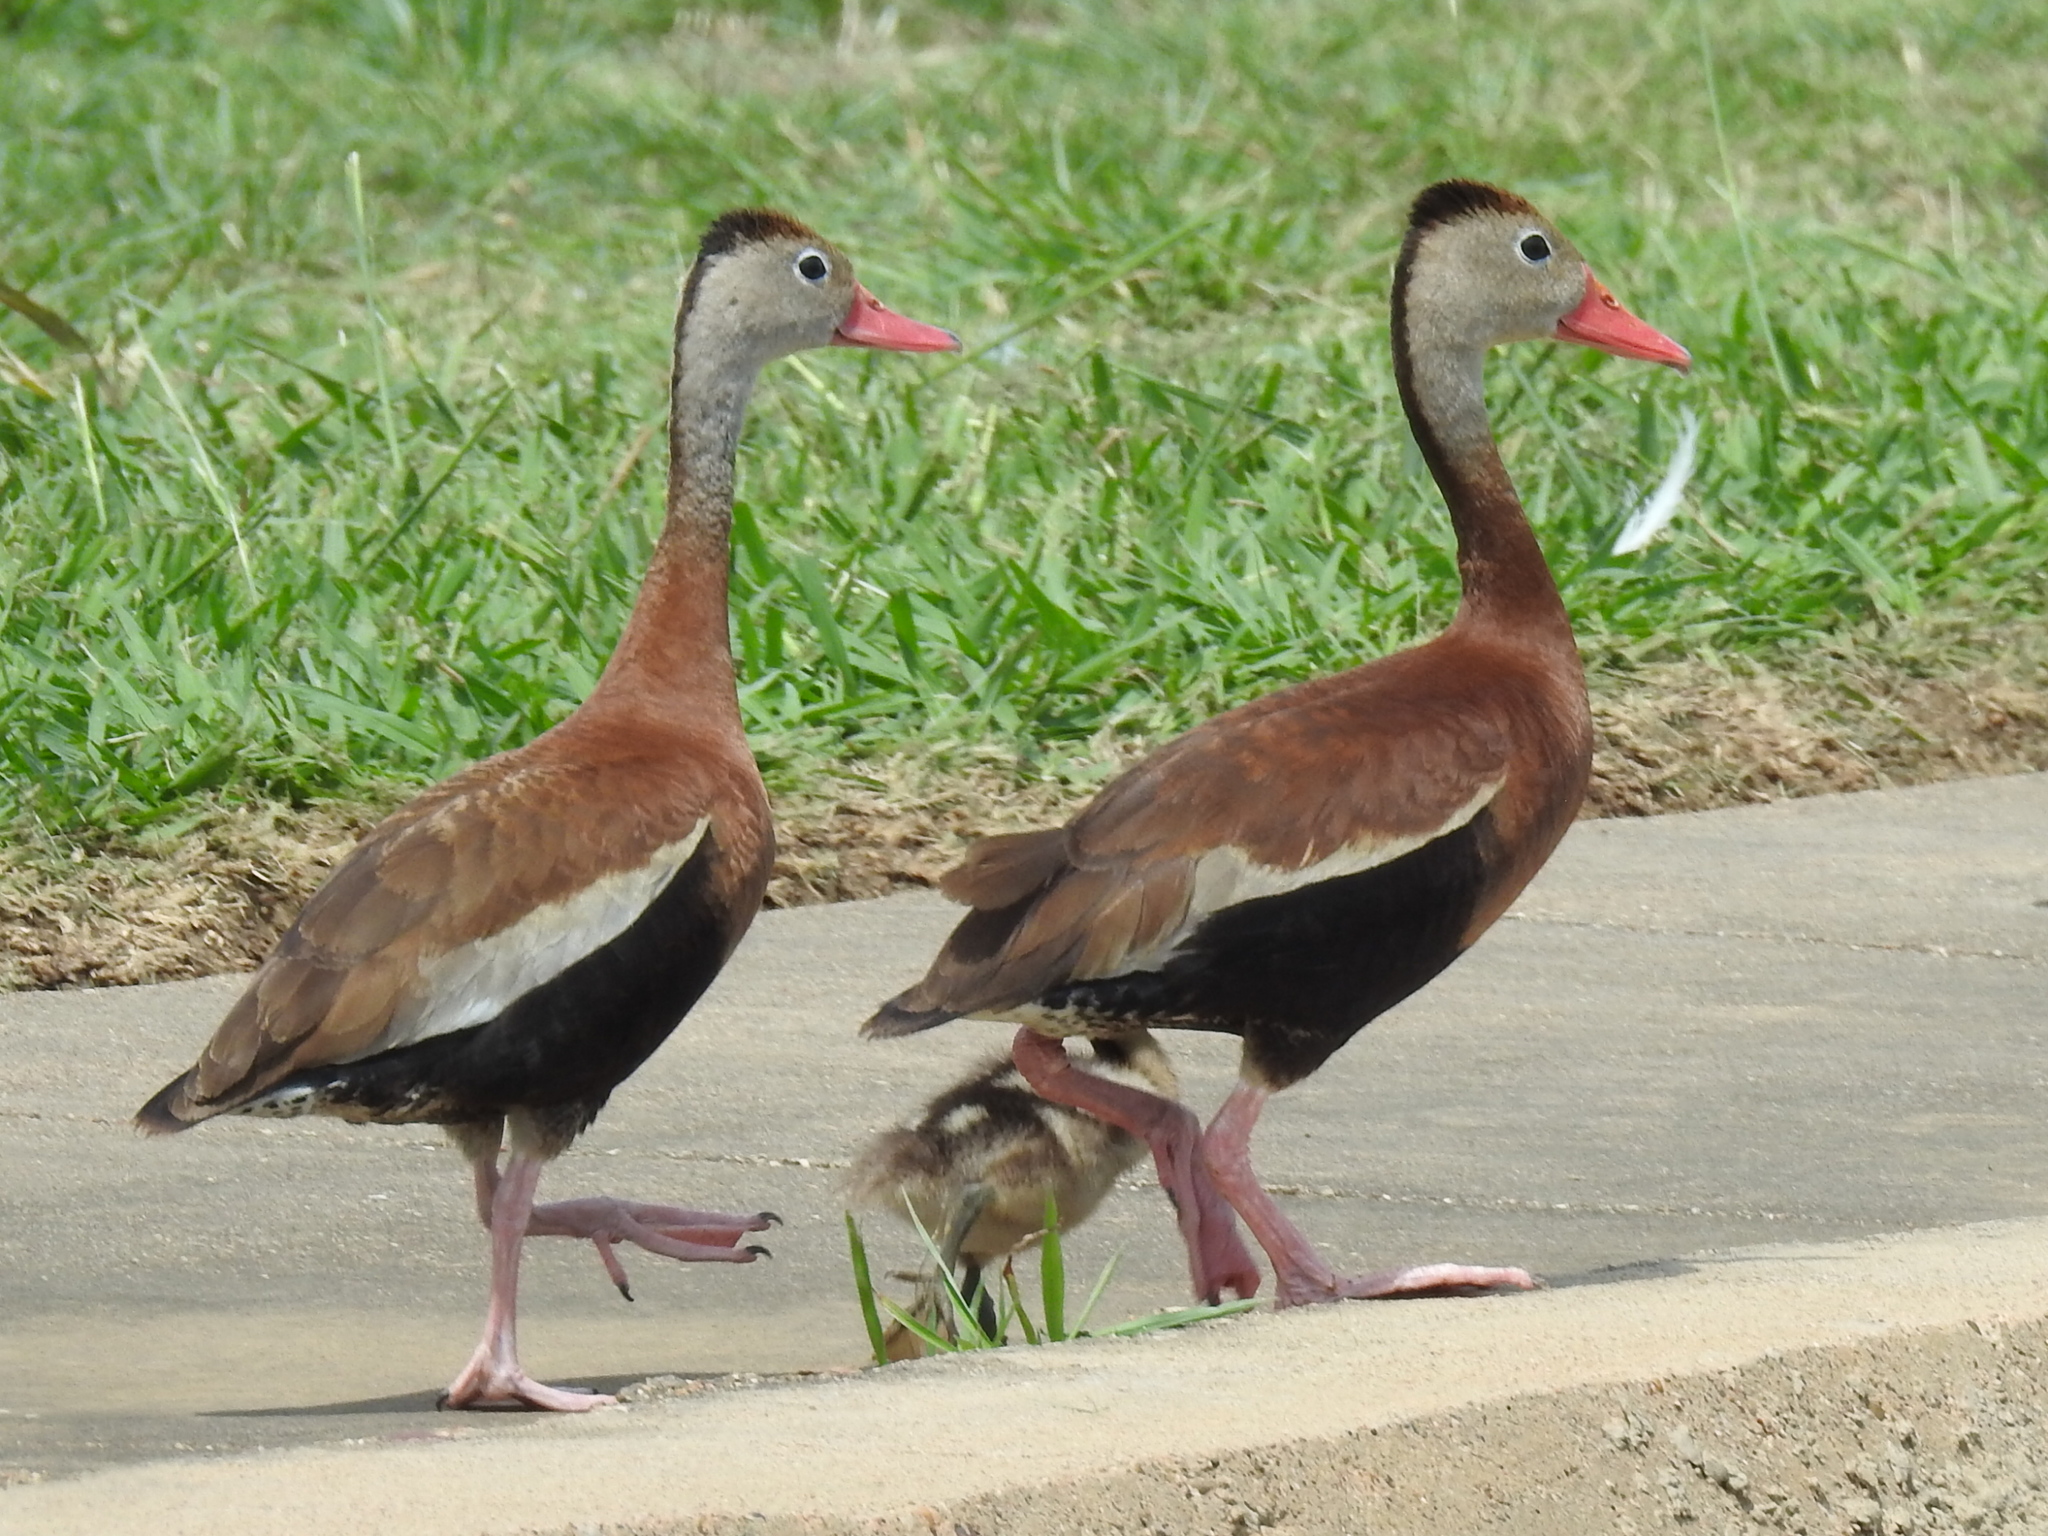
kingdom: Animalia
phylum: Chordata
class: Aves
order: Anseriformes
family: Anatidae
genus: Dendrocygna
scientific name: Dendrocygna autumnalis
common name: Black-bellied whistling duck
